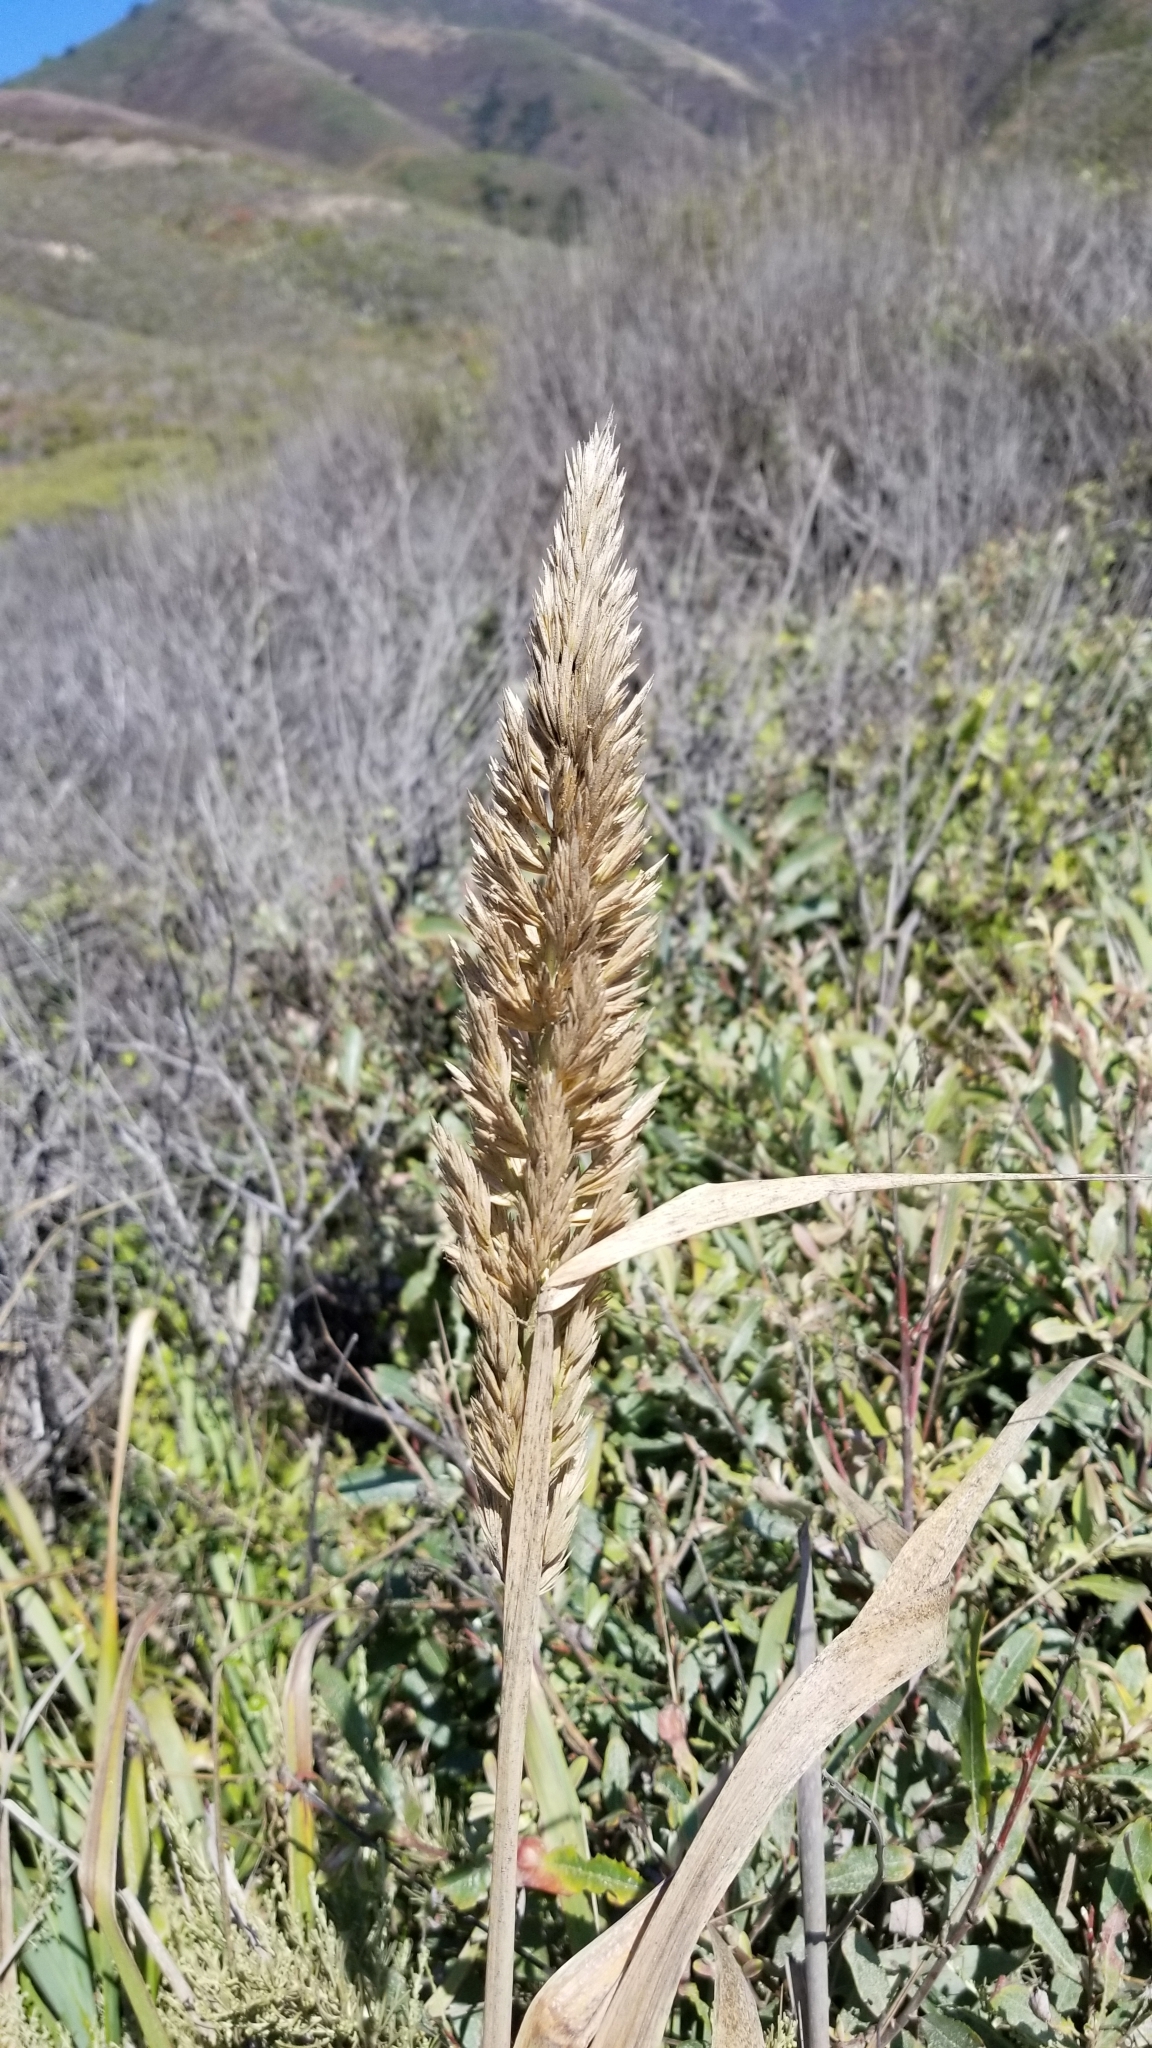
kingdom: Plantae
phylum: Tracheophyta
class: Liliopsida
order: Poales
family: Poaceae
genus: Leymus
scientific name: Leymus condensatus
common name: Giant wild rye
